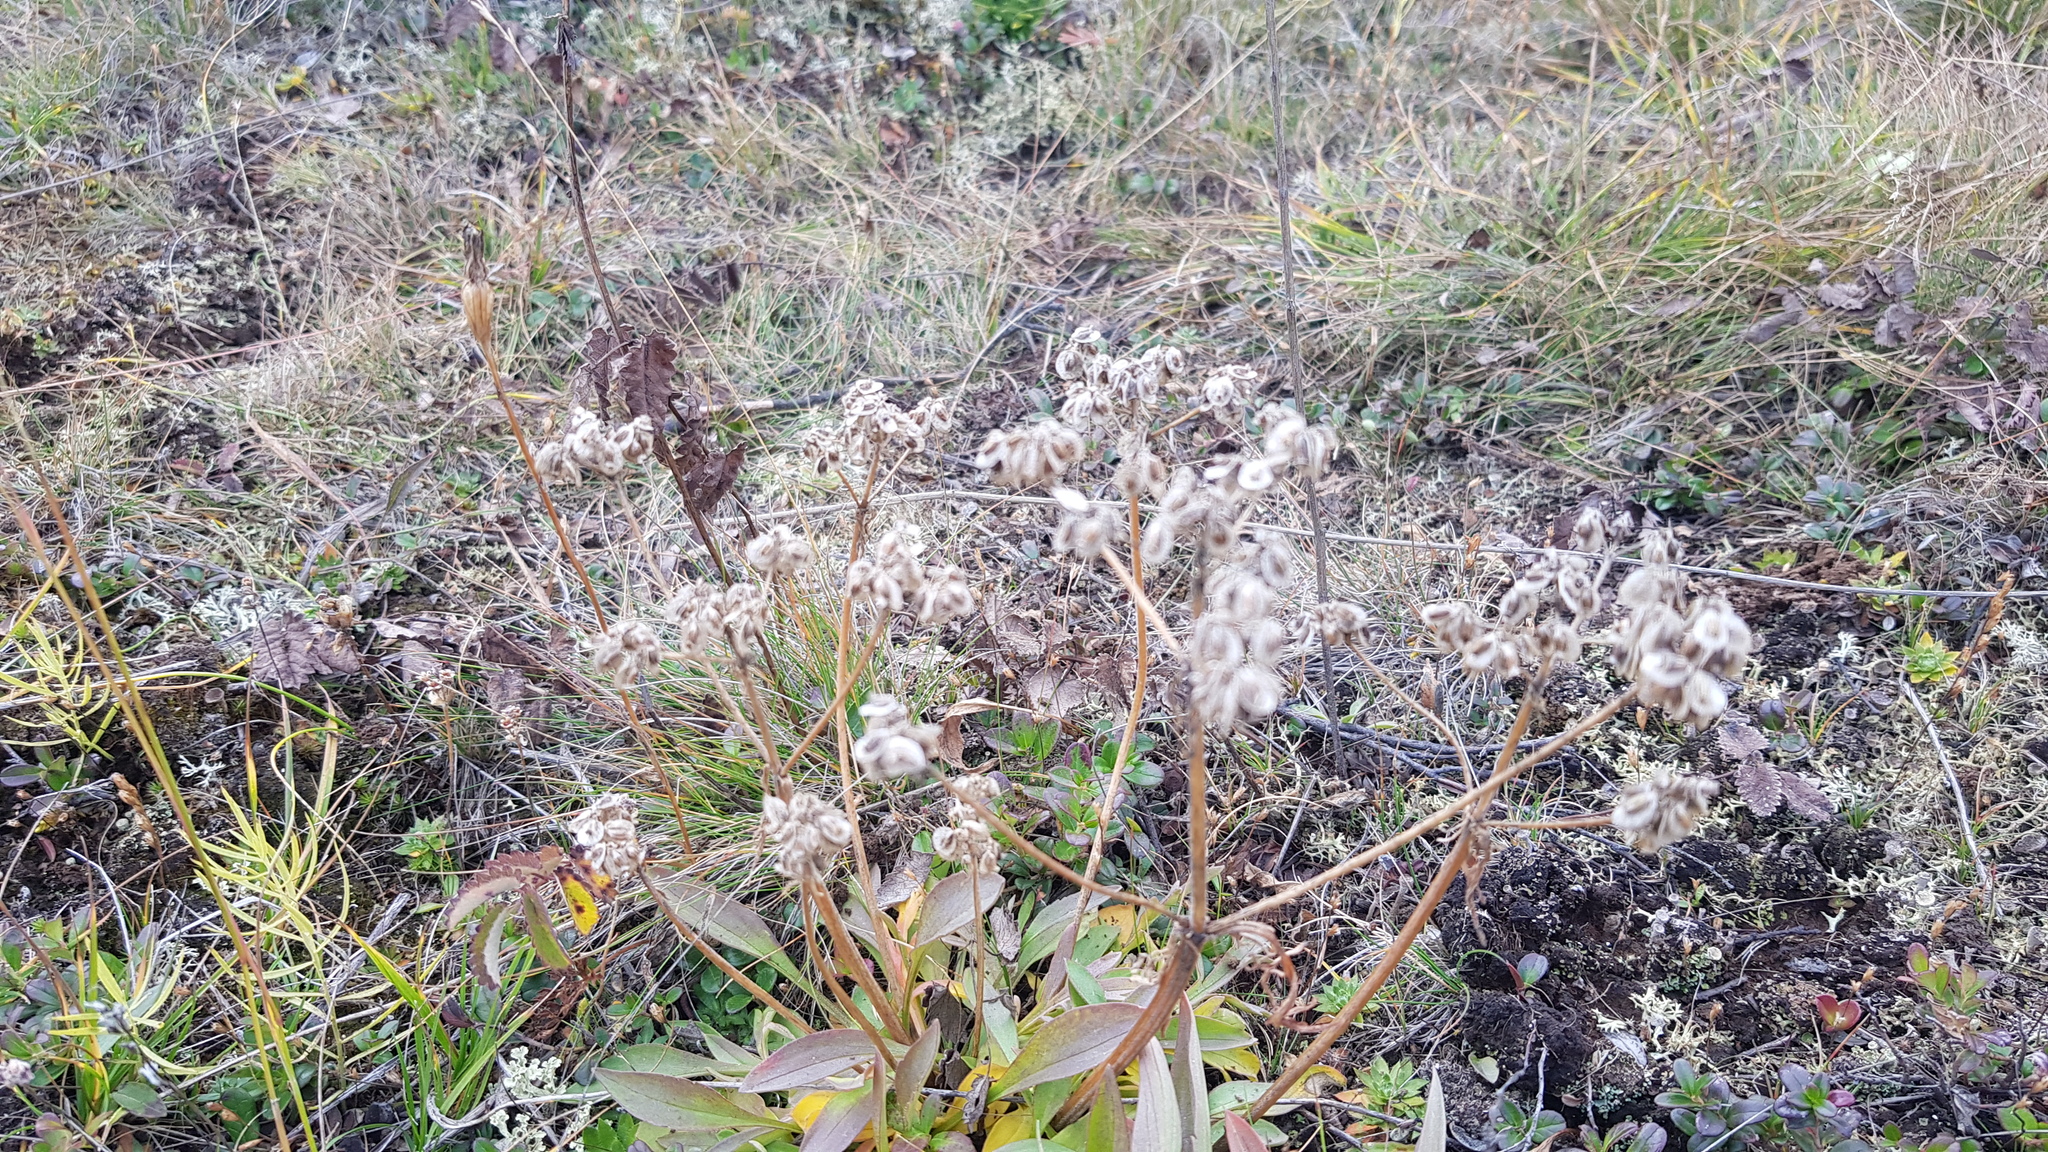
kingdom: Plantae
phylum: Tracheophyta
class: Magnoliopsida
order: Dipsacales
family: Caprifoliaceae
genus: Patrinia
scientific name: Patrinia sibirica
